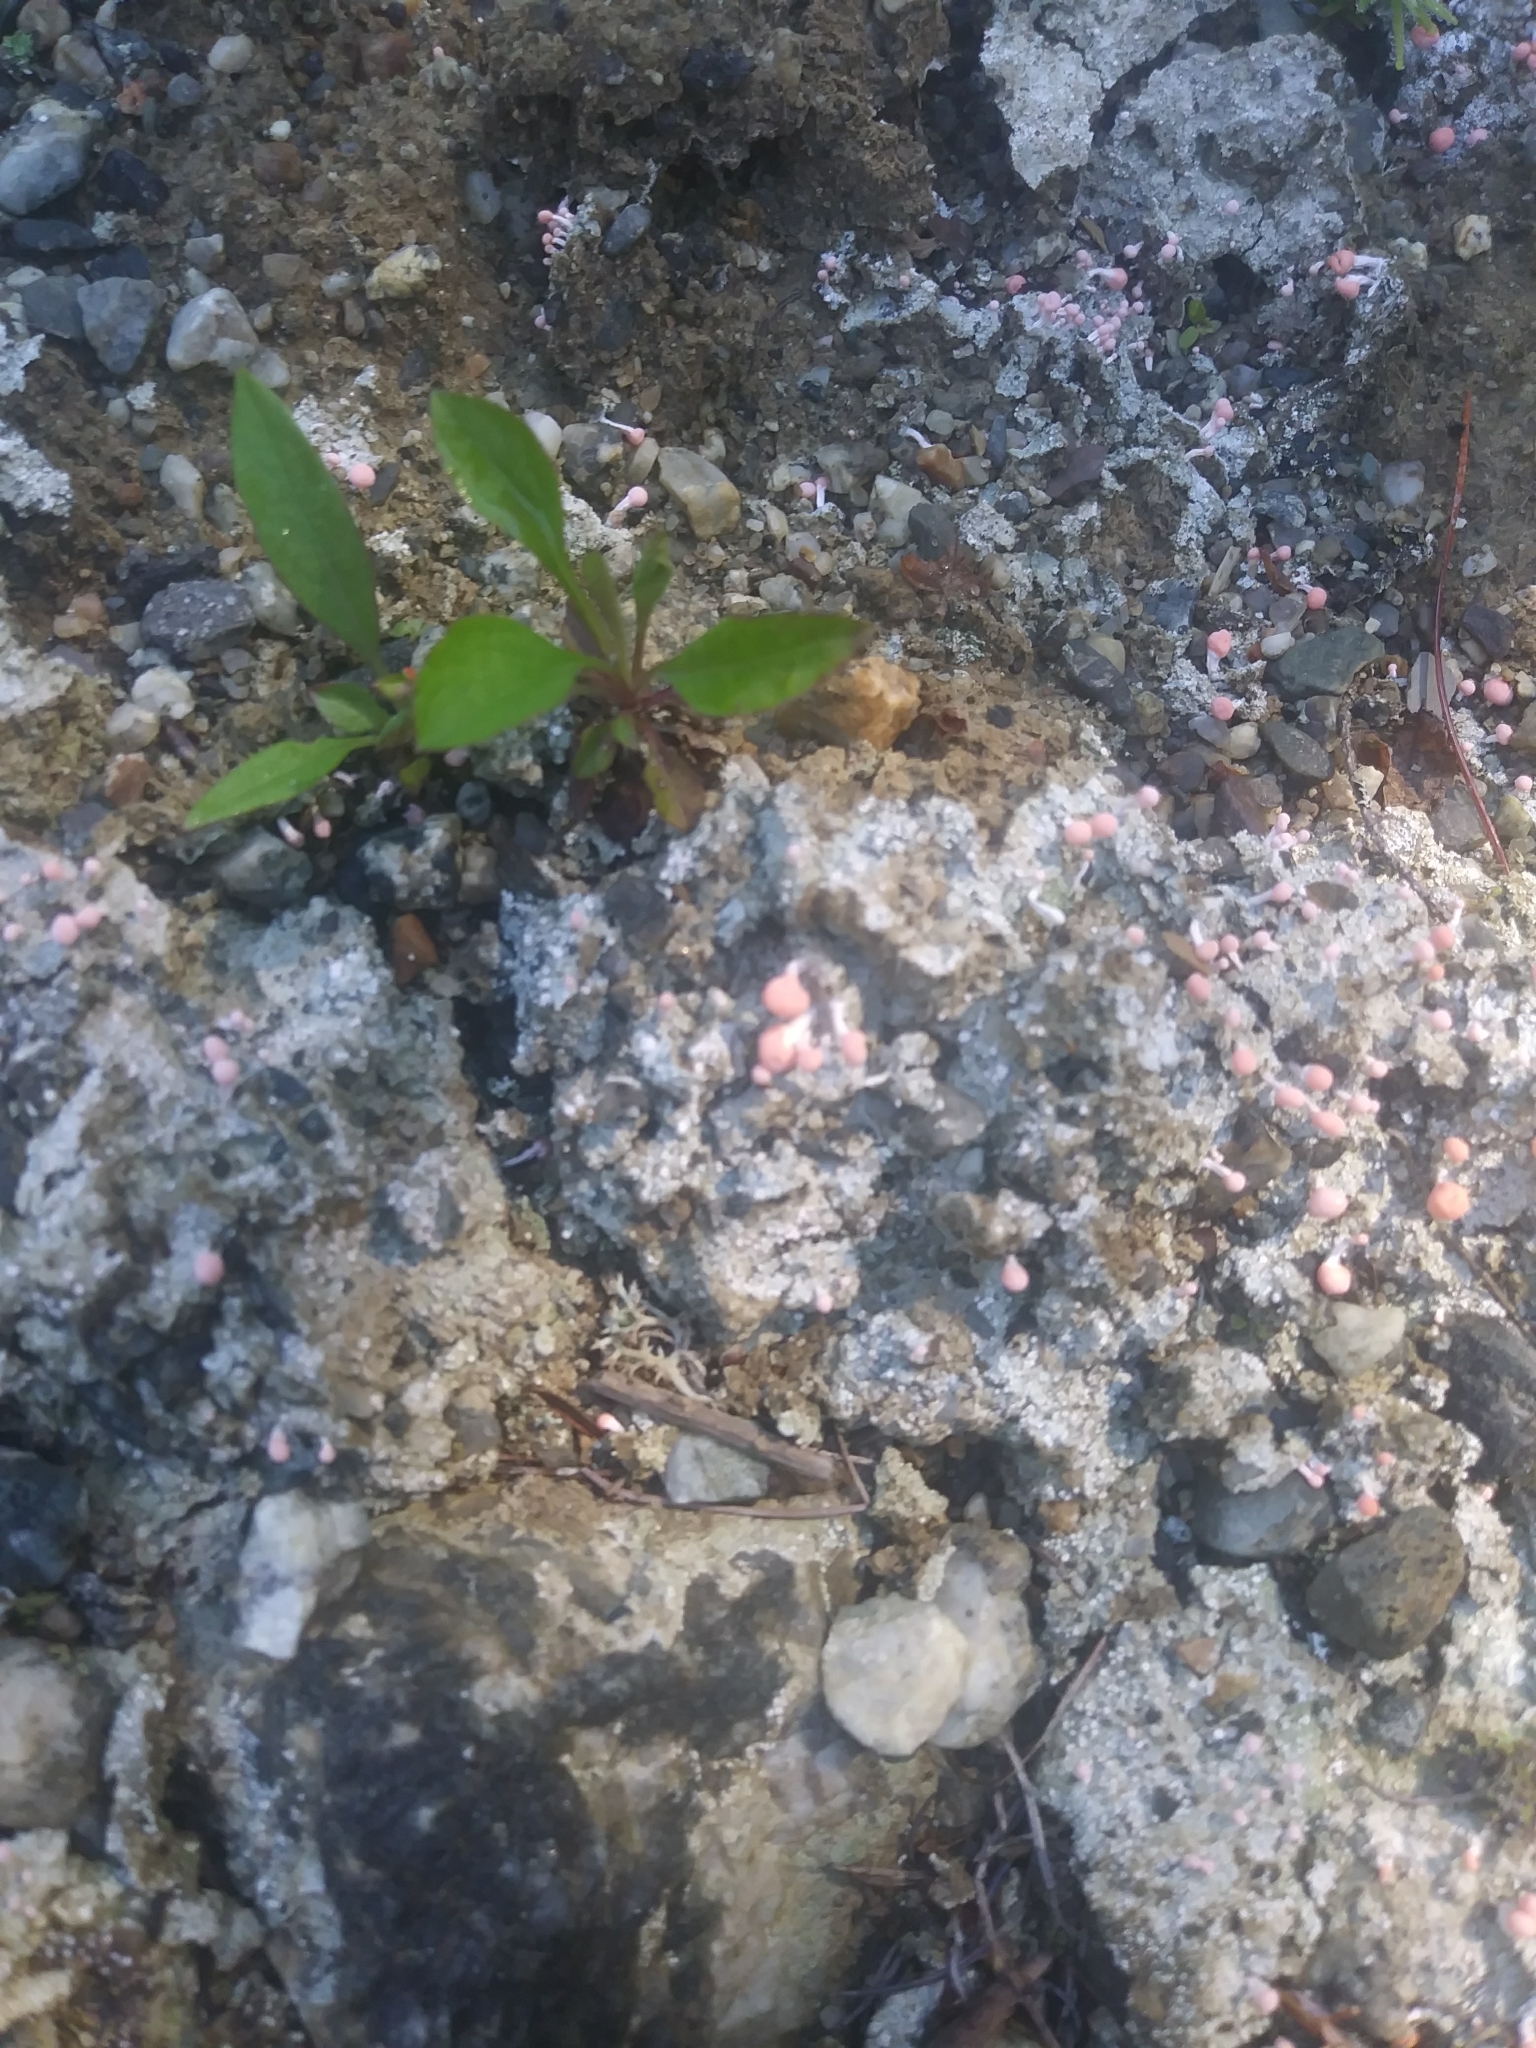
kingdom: Fungi
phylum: Ascomycota
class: Lecanoromycetes
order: Pertusariales
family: Icmadophilaceae
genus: Dibaeis
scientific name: Dibaeis baeomyces
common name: Pink earth lichen
